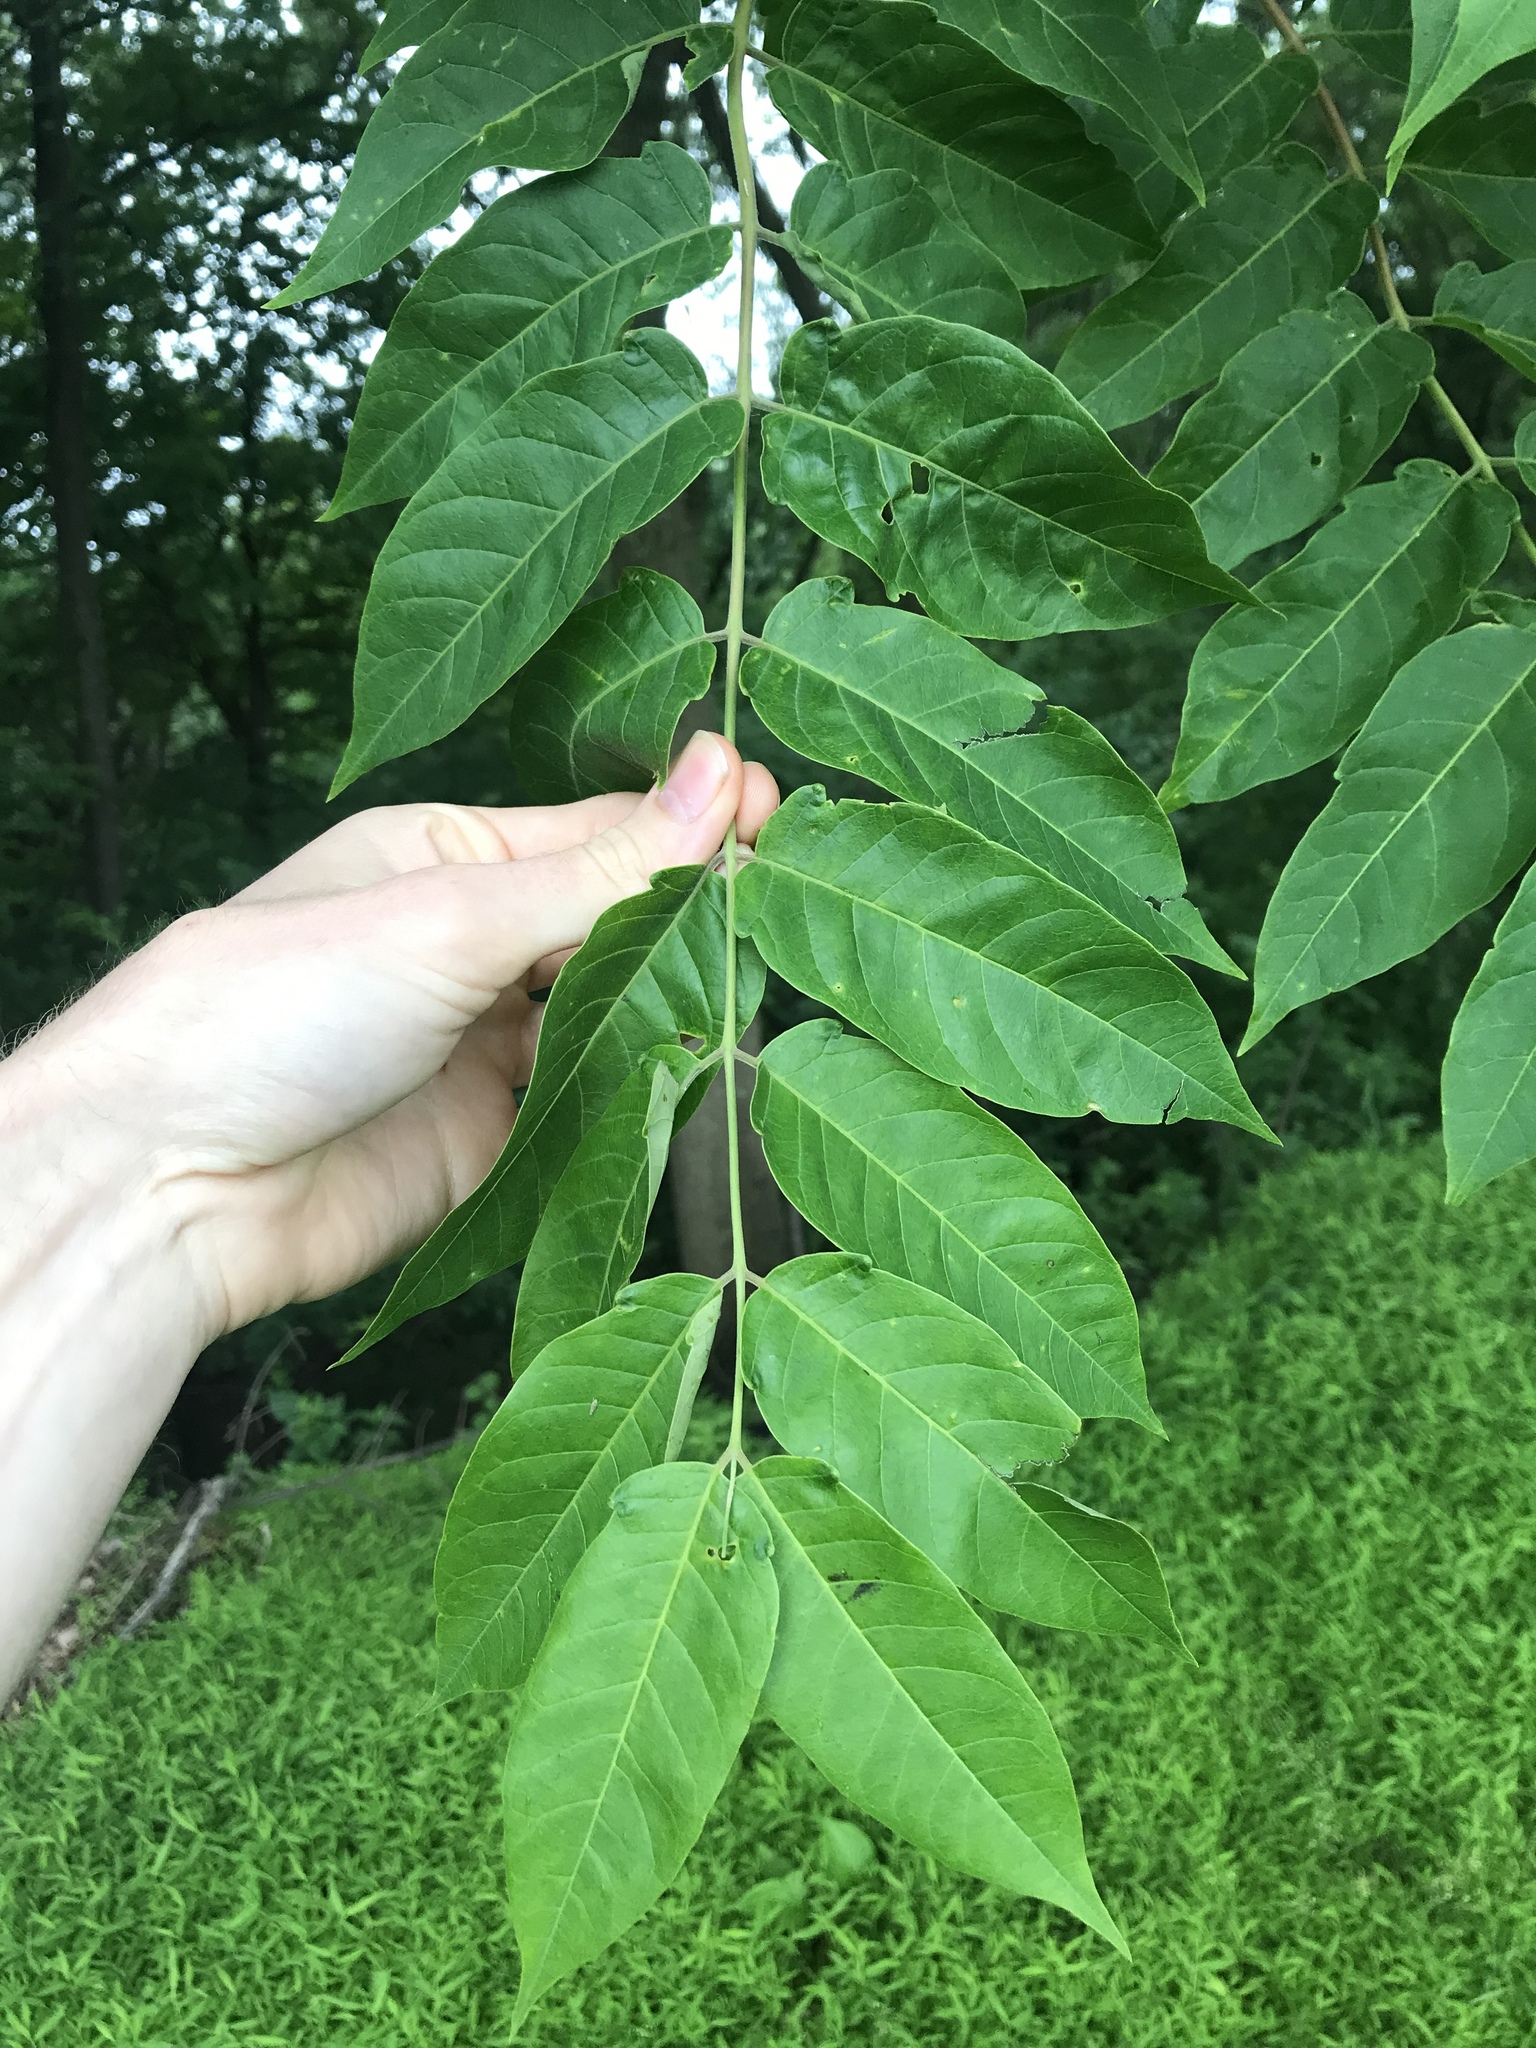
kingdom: Plantae
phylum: Tracheophyta
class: Magnoliopsida
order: Sapindales
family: Simaroubaceae
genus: Ailanthus
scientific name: Ailanthus altissima
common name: Tree-of-heaven
